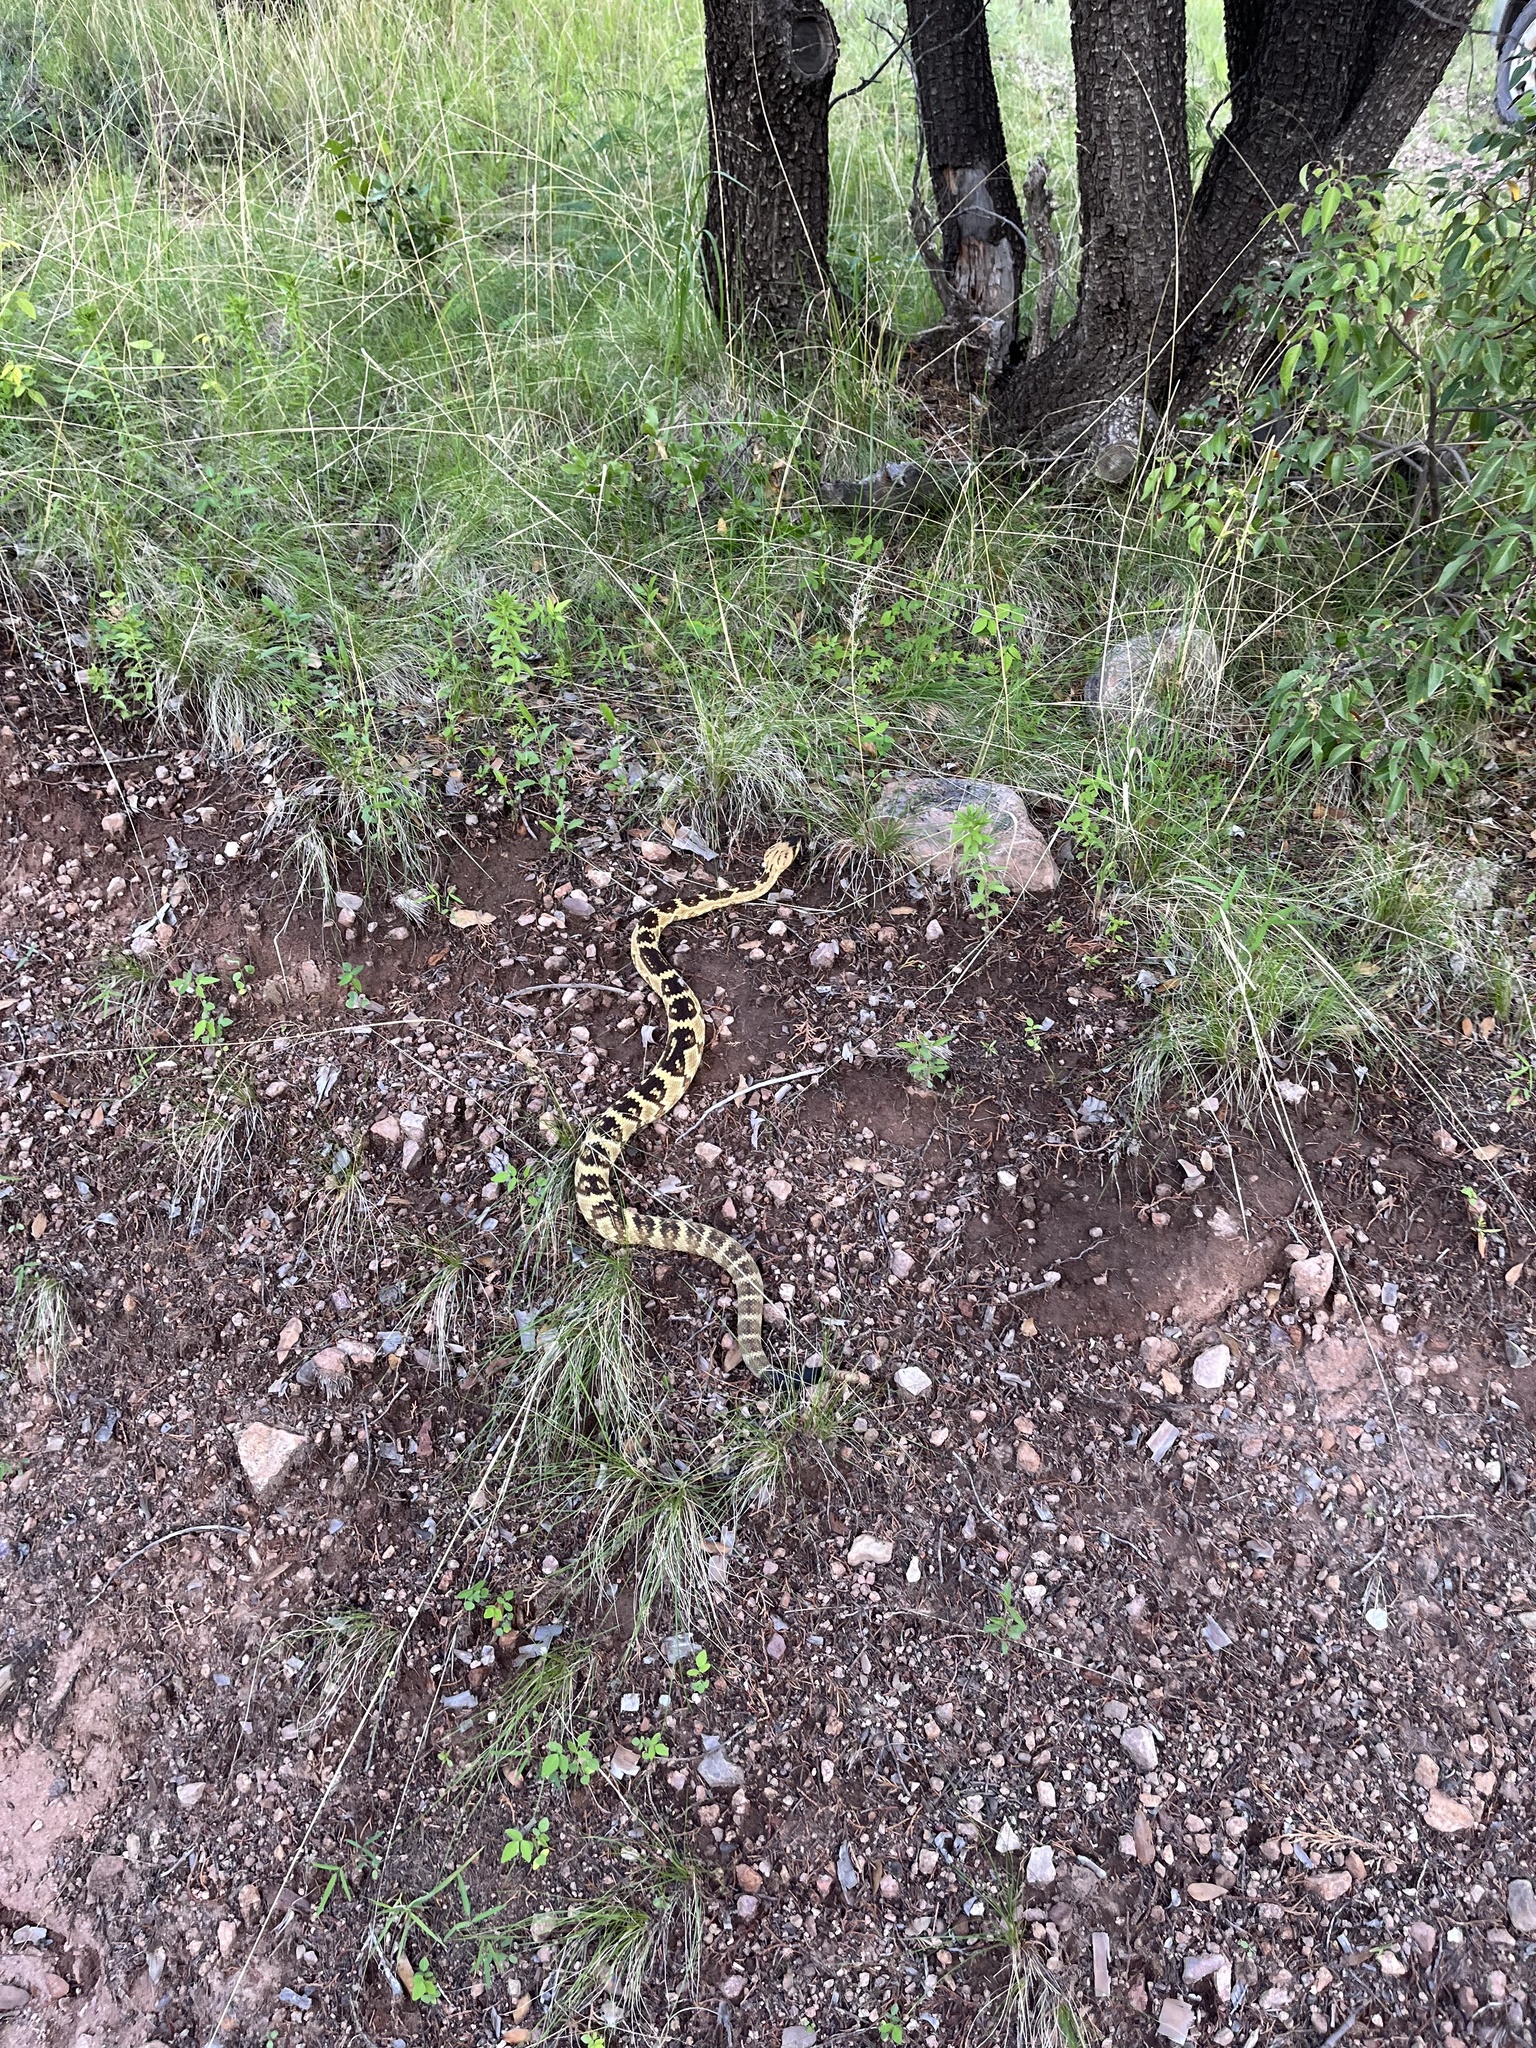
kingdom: Animalia
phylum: Chordata
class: Squamata
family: Viperidae
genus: Crotalus
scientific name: Crotalus molossus
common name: Black tailed rattlesnake
